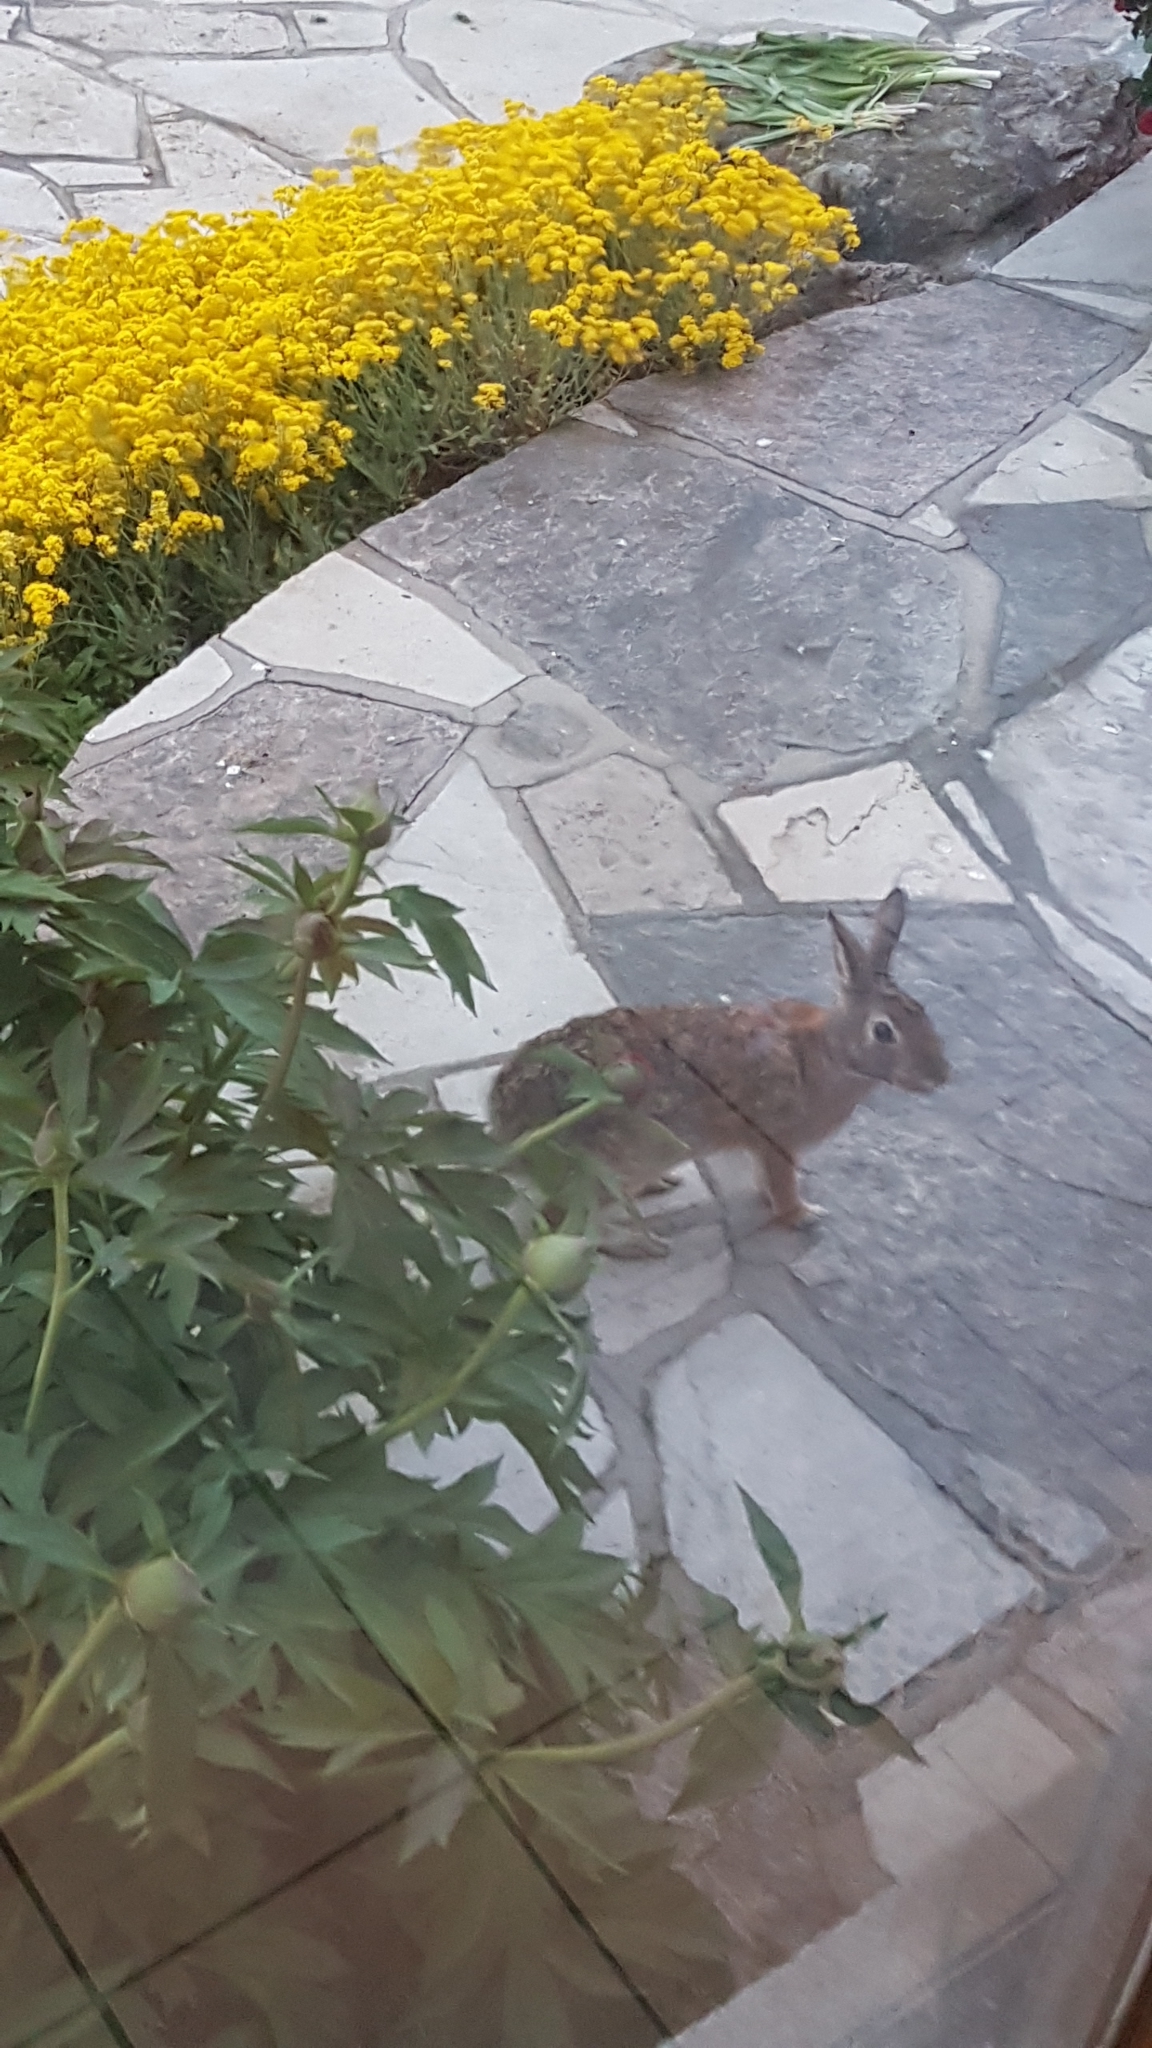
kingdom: Animalia
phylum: Chordata
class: Mammalia
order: Lagomorpha
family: Leporidae
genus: Sylvilagus
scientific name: Sylvilagus floridanus
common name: Eastern cottontail
